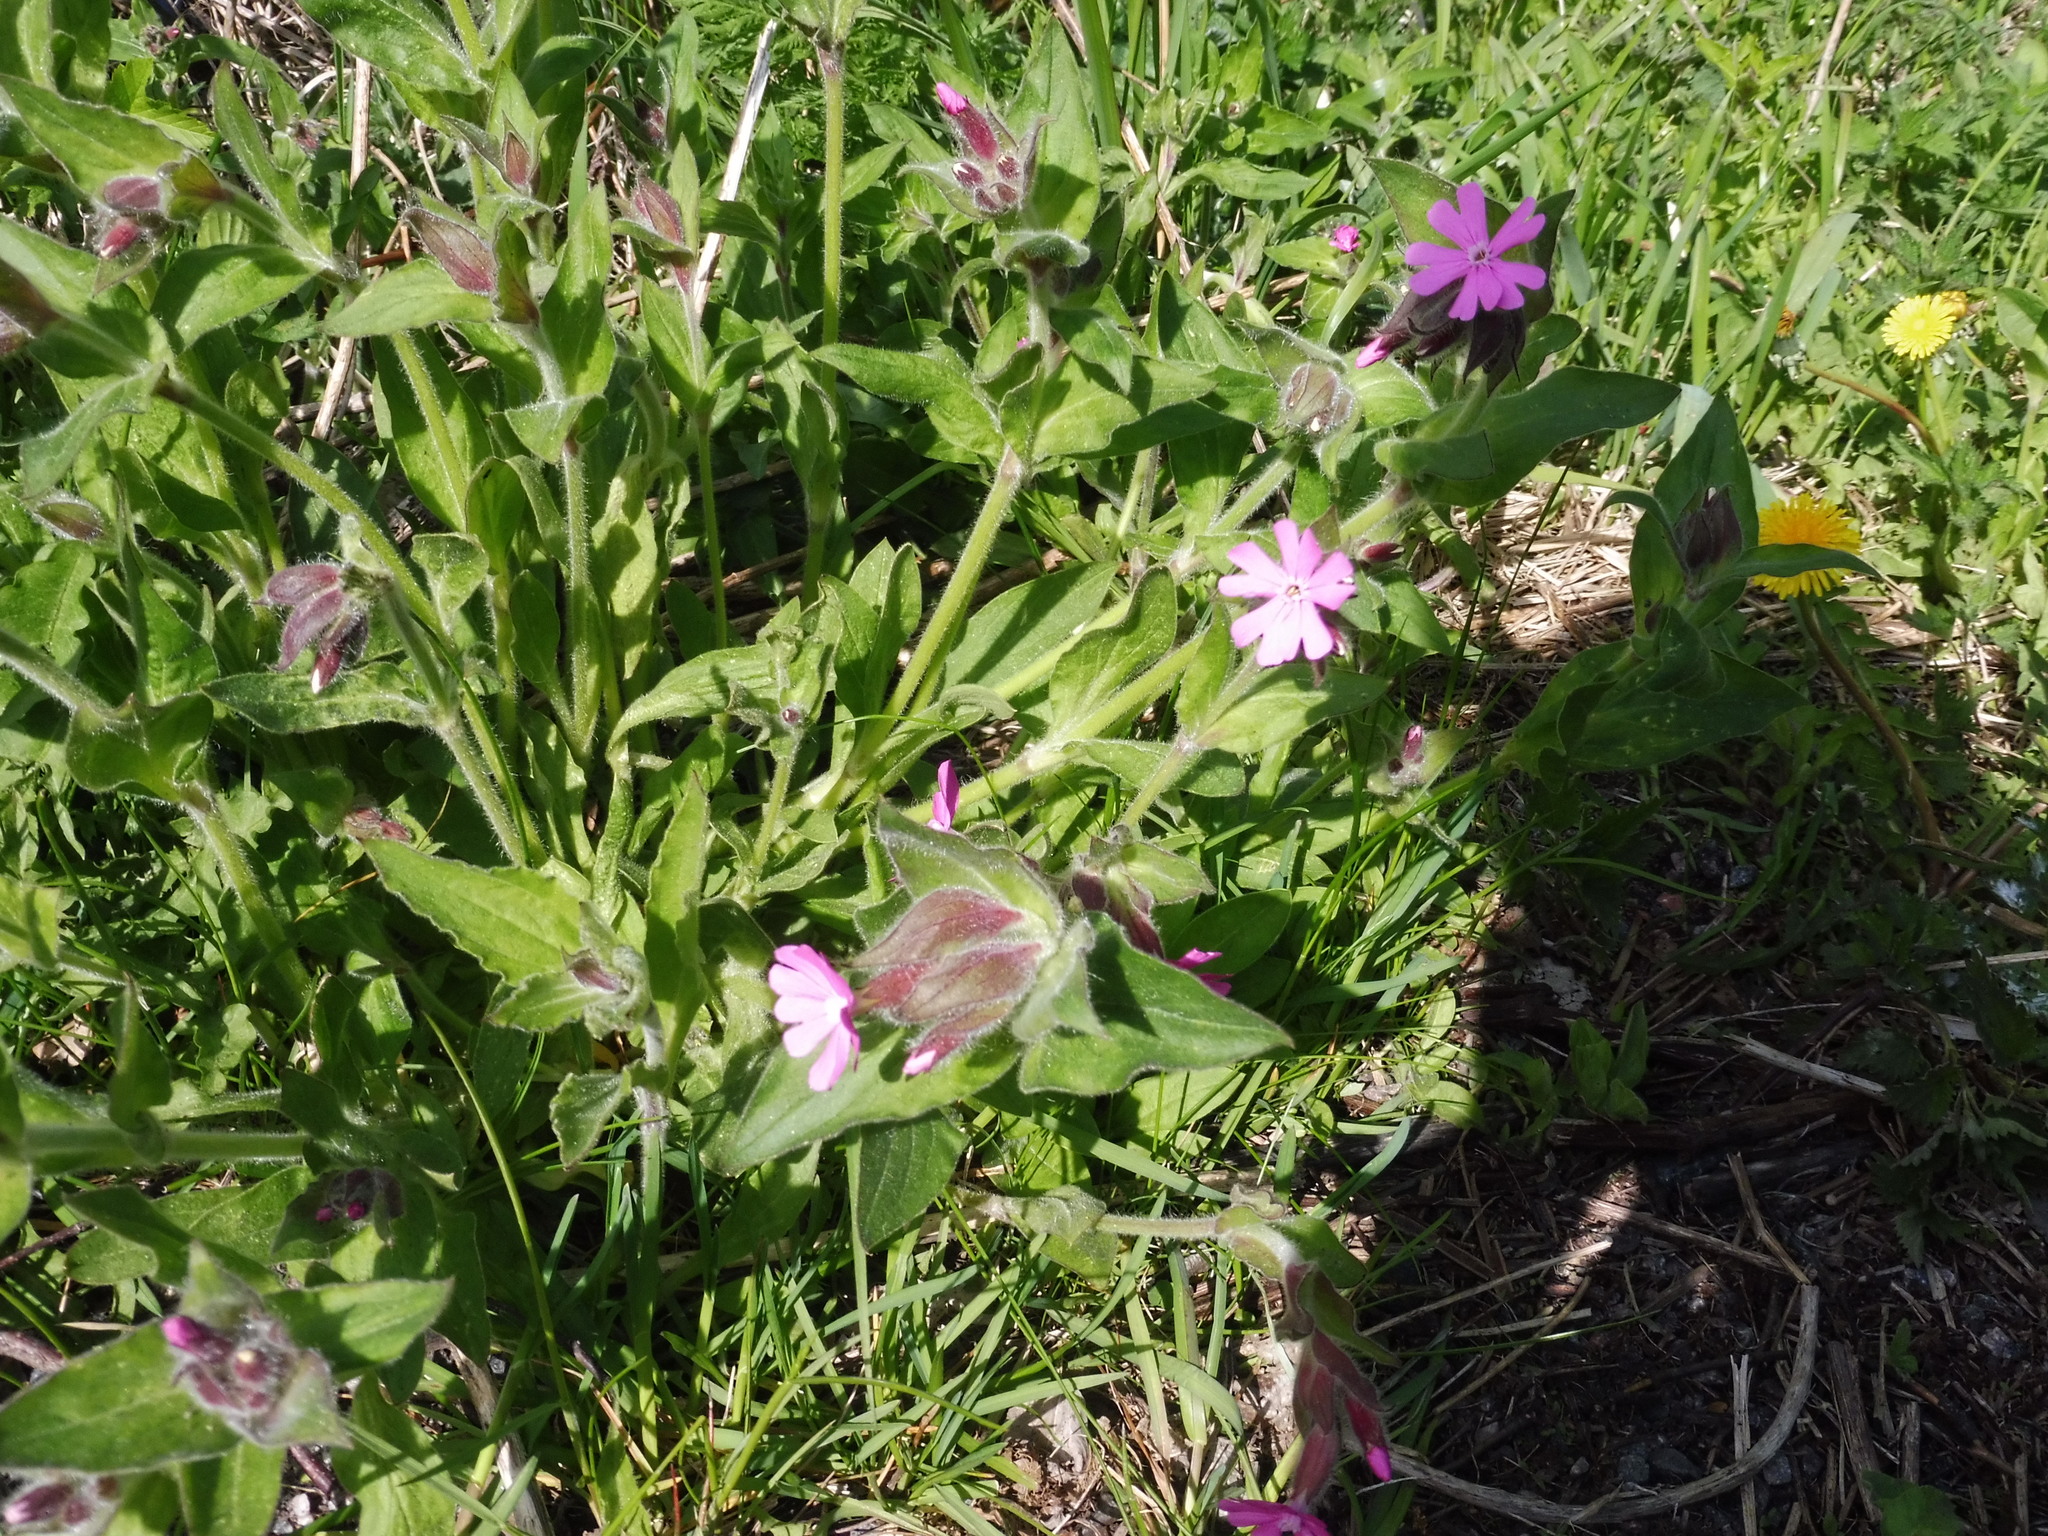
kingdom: Plantae
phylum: Tracheophyta
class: Magnoliopsida
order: Caryophyllales
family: Caryophyllaceae
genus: Silene
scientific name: Silene dioica
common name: Red campion
